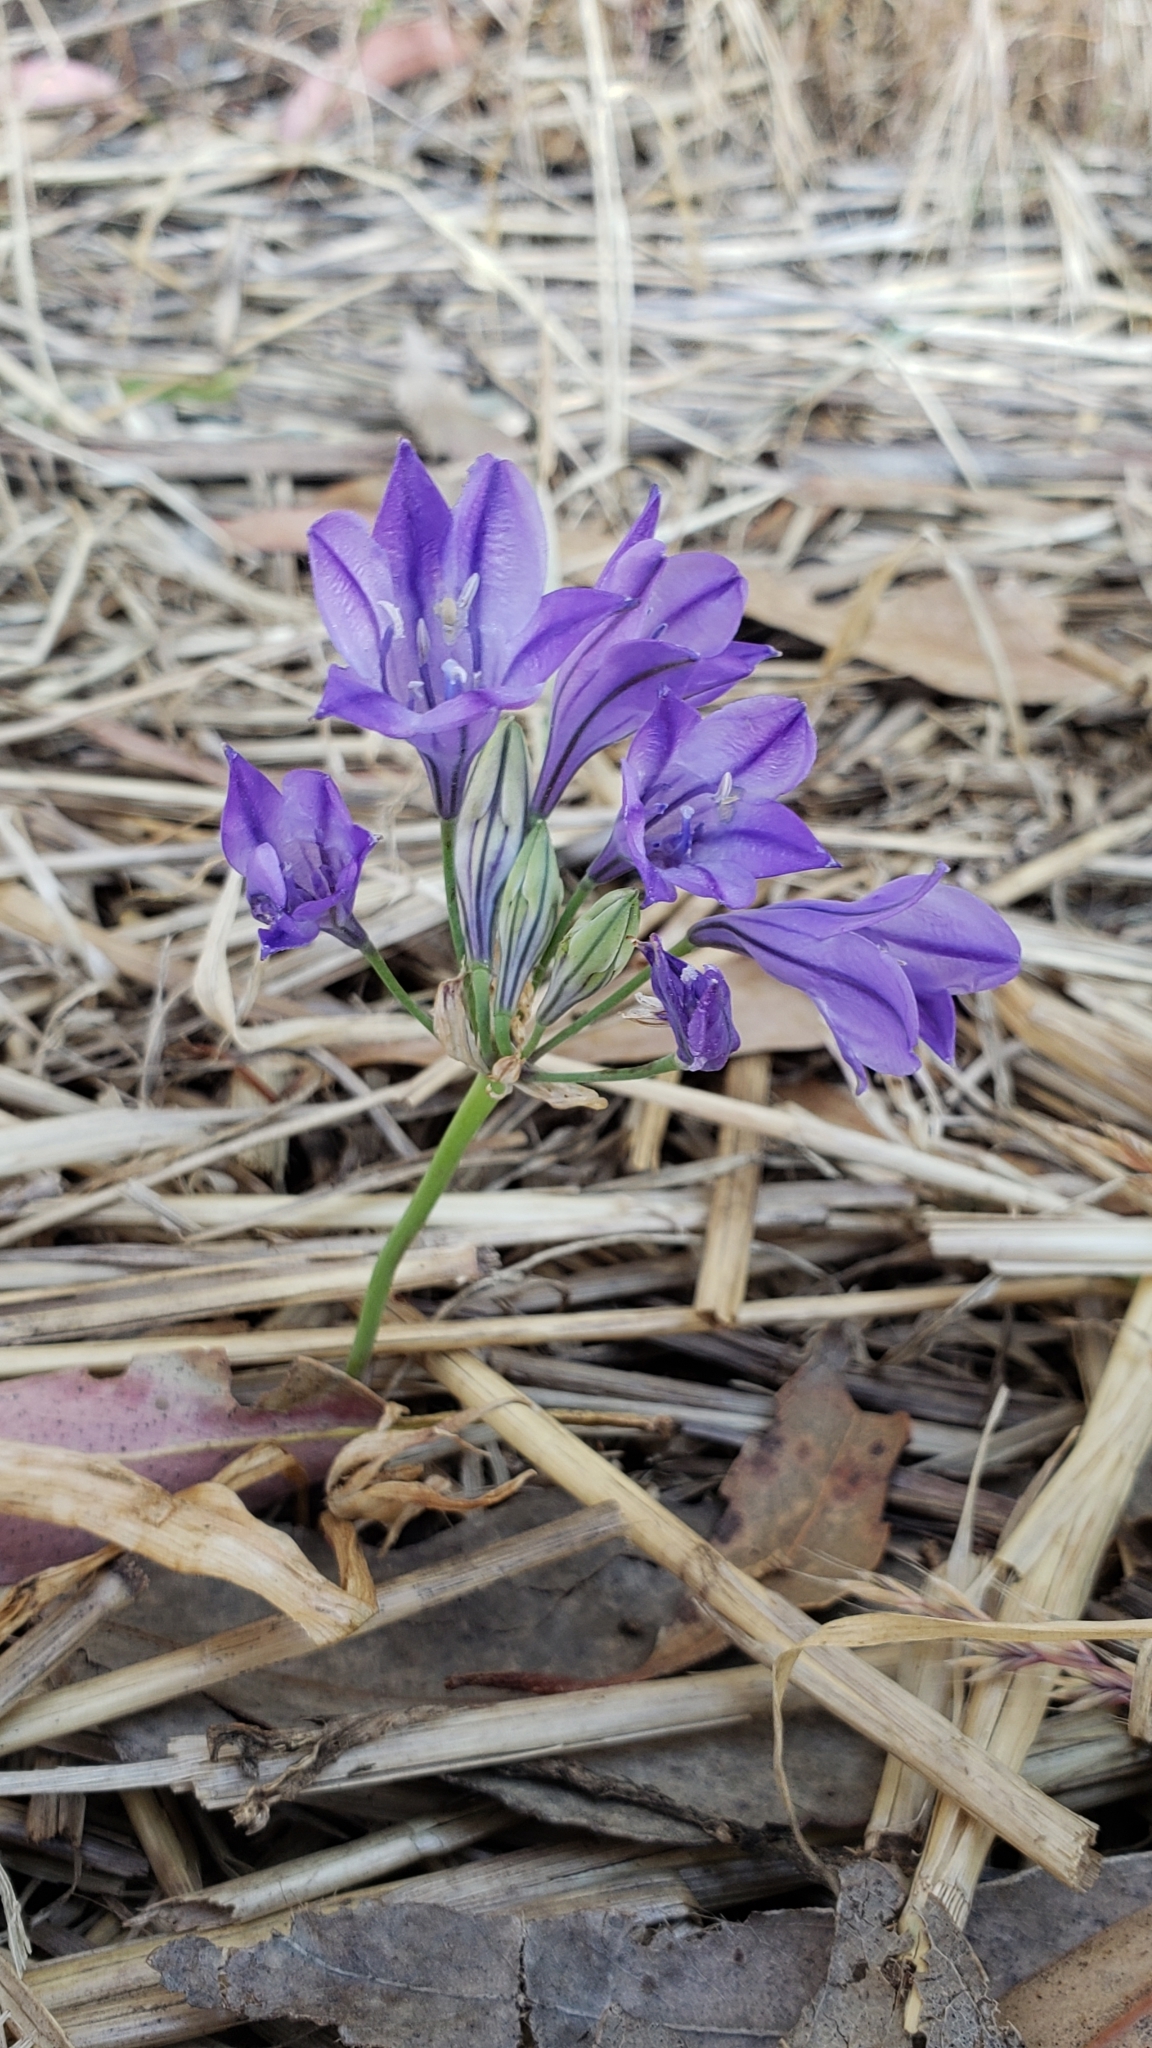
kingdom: Plantae
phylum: Tracheophyta
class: Liliopsida
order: Asparagales
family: Asparagaceae
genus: Triteleia
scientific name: Triteleia laxa
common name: Triplet-lily
